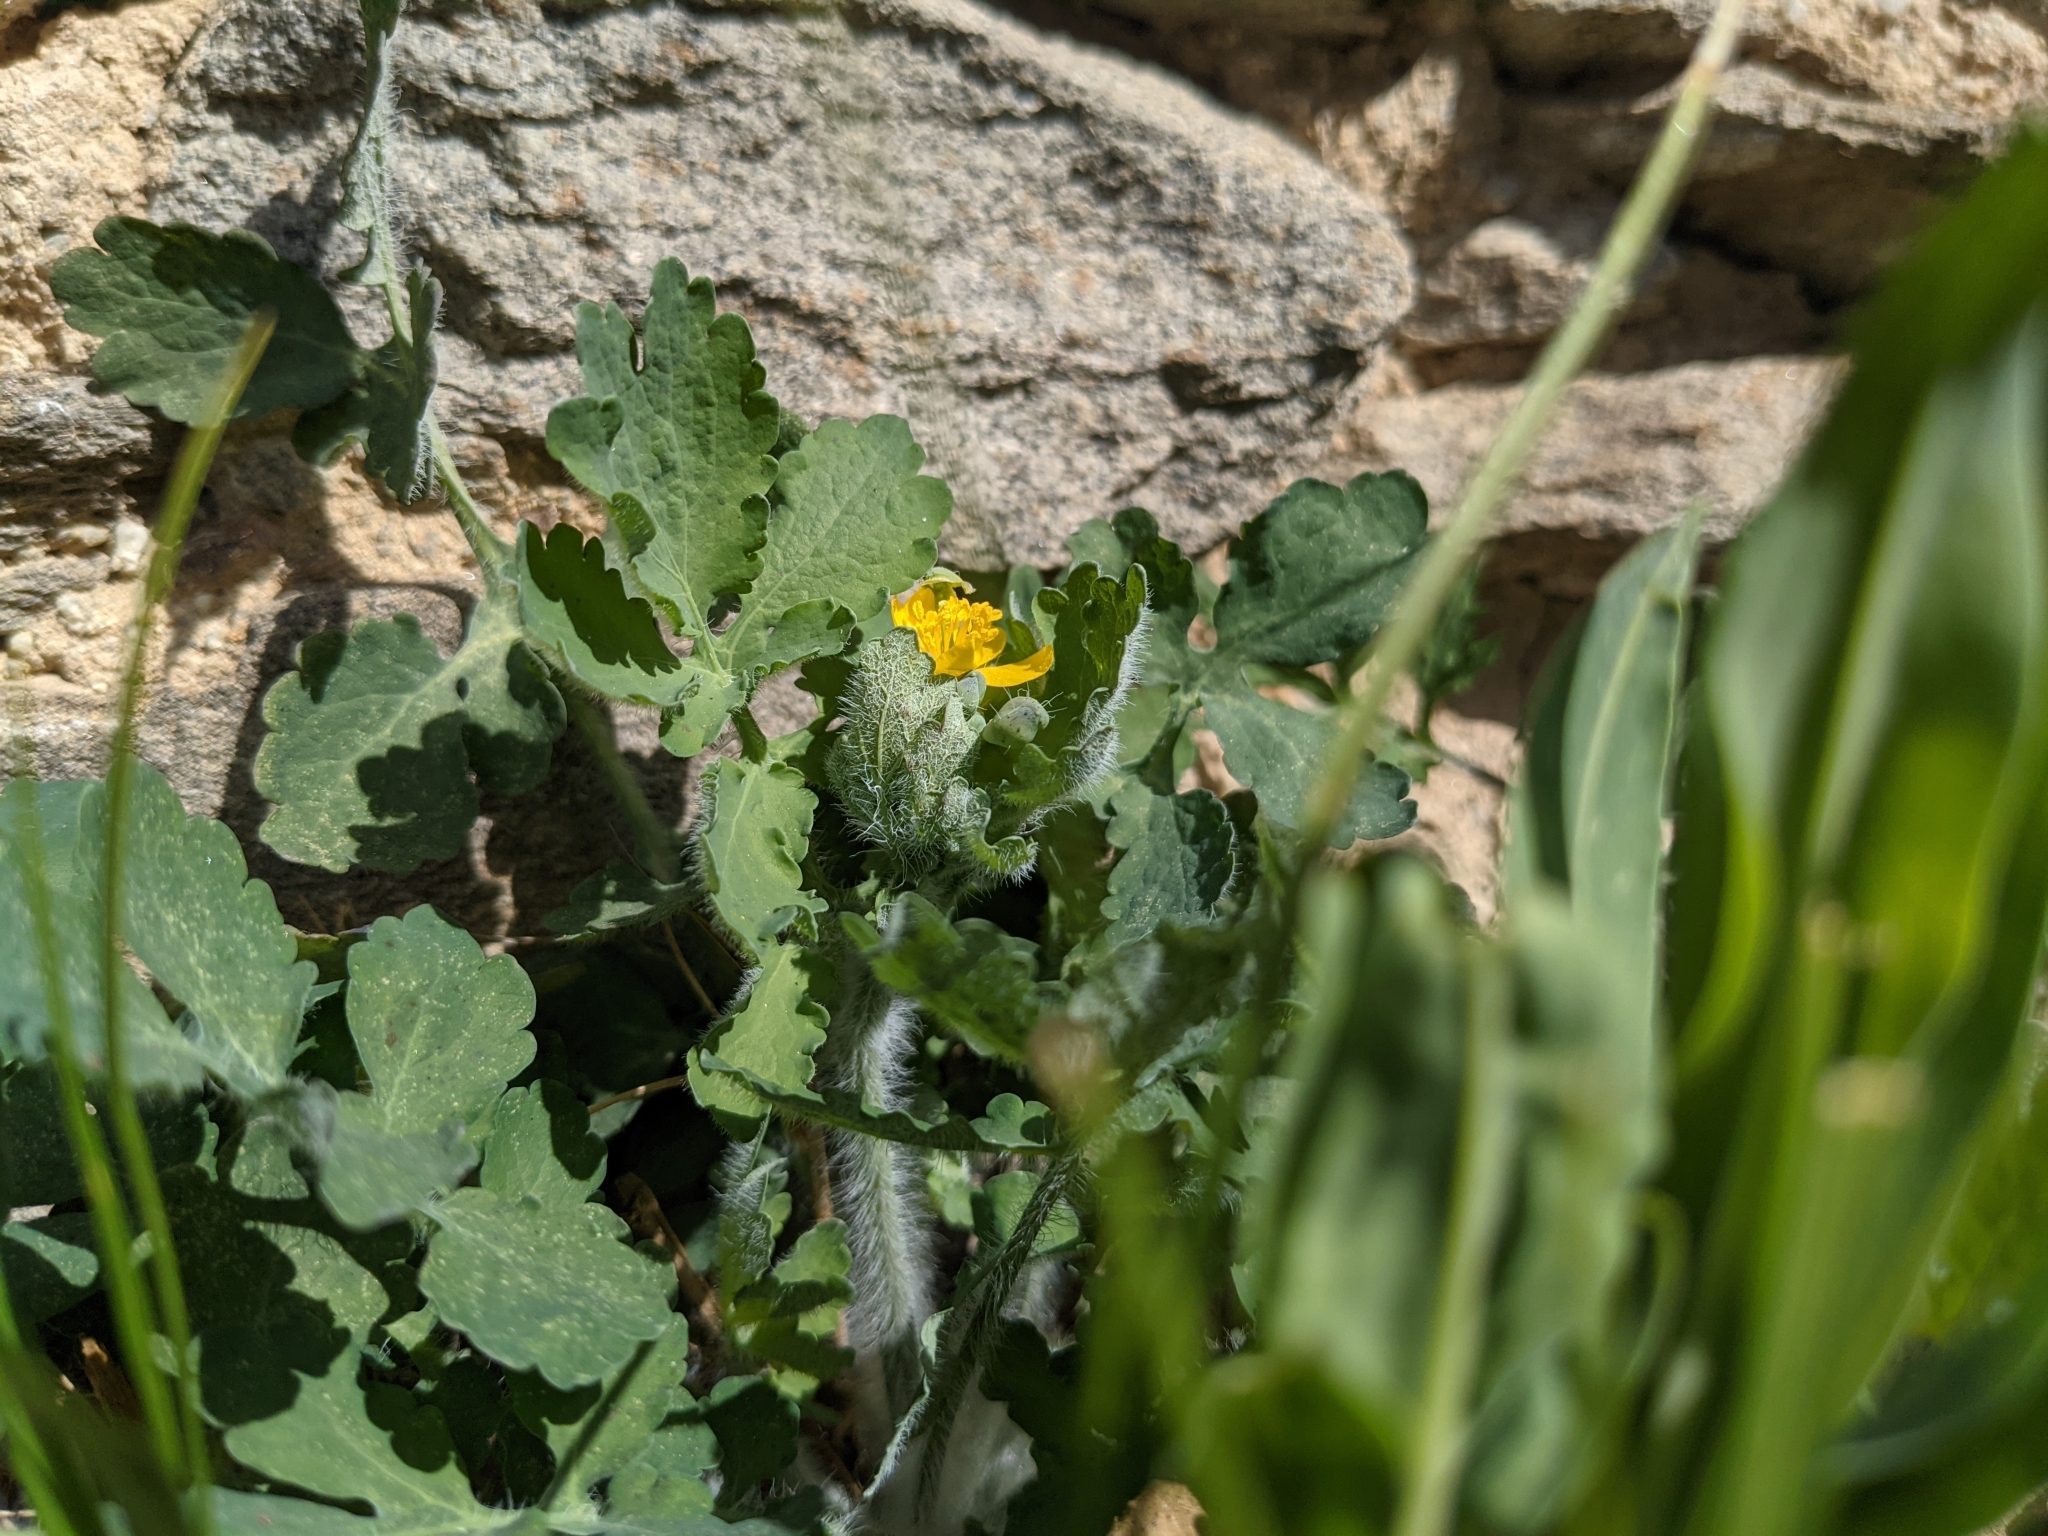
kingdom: Plantae
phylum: Tracheophyta
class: Magnoliopsida
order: Ranunculales
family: Papaveraceae
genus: Chelidonium
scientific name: Chelidonium majus
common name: Greater celandine
